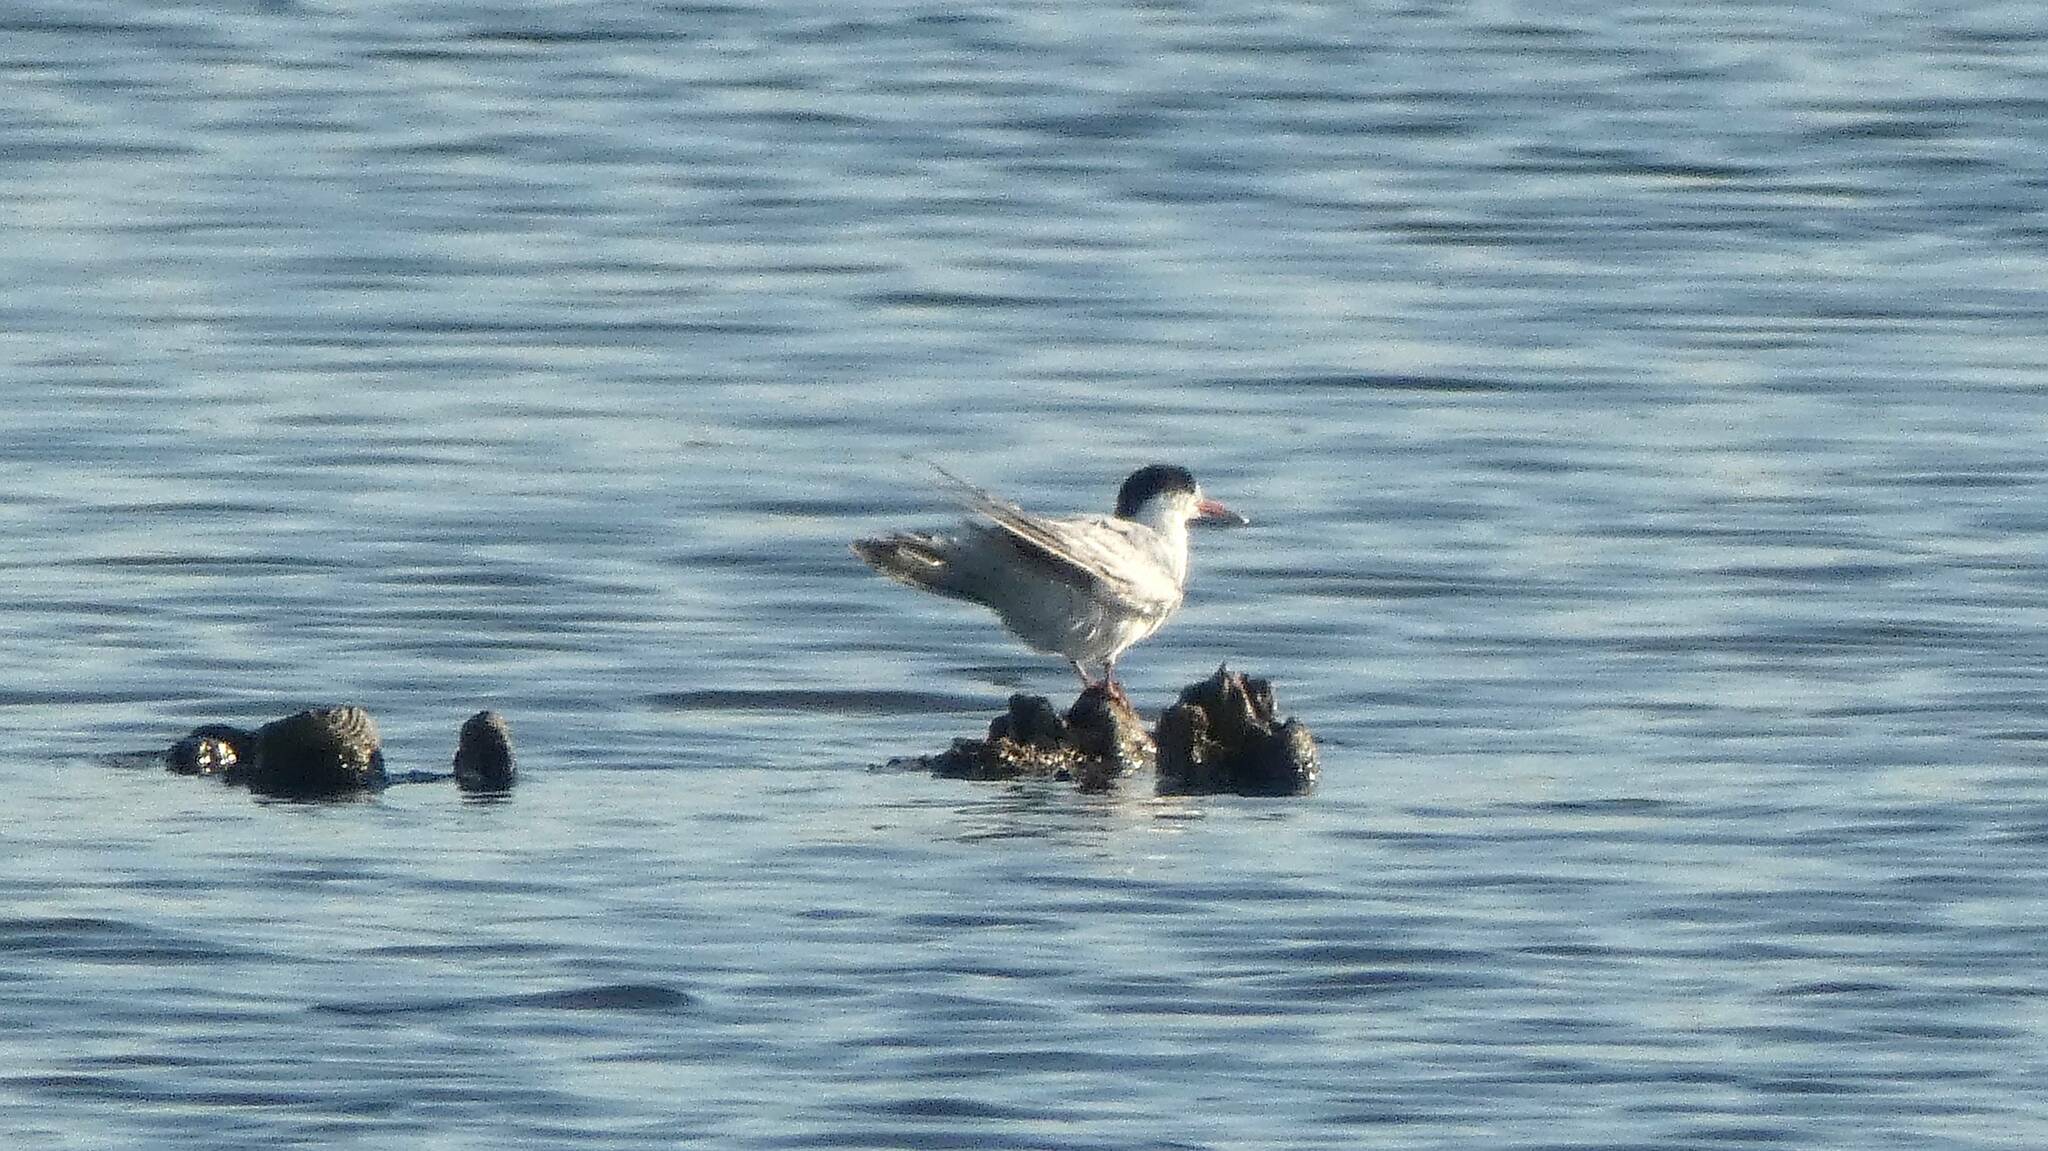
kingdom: Animalia
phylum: Chordata
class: Aves
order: Charadriiformes
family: Laridae
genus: Sterna
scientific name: Sterna hirundo
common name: Common tern
